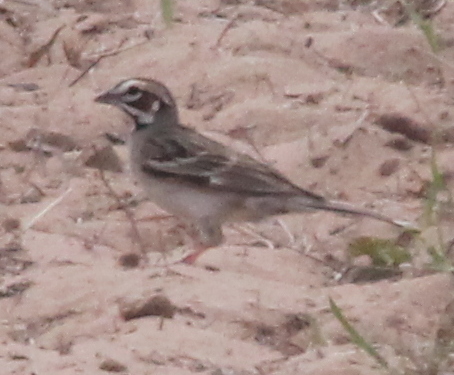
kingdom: Animalia
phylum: Chordata
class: Aves
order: Passeriformes
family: Passerellidae
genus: Chondestes
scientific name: Chondestes grammacus
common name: Lark sparrow
